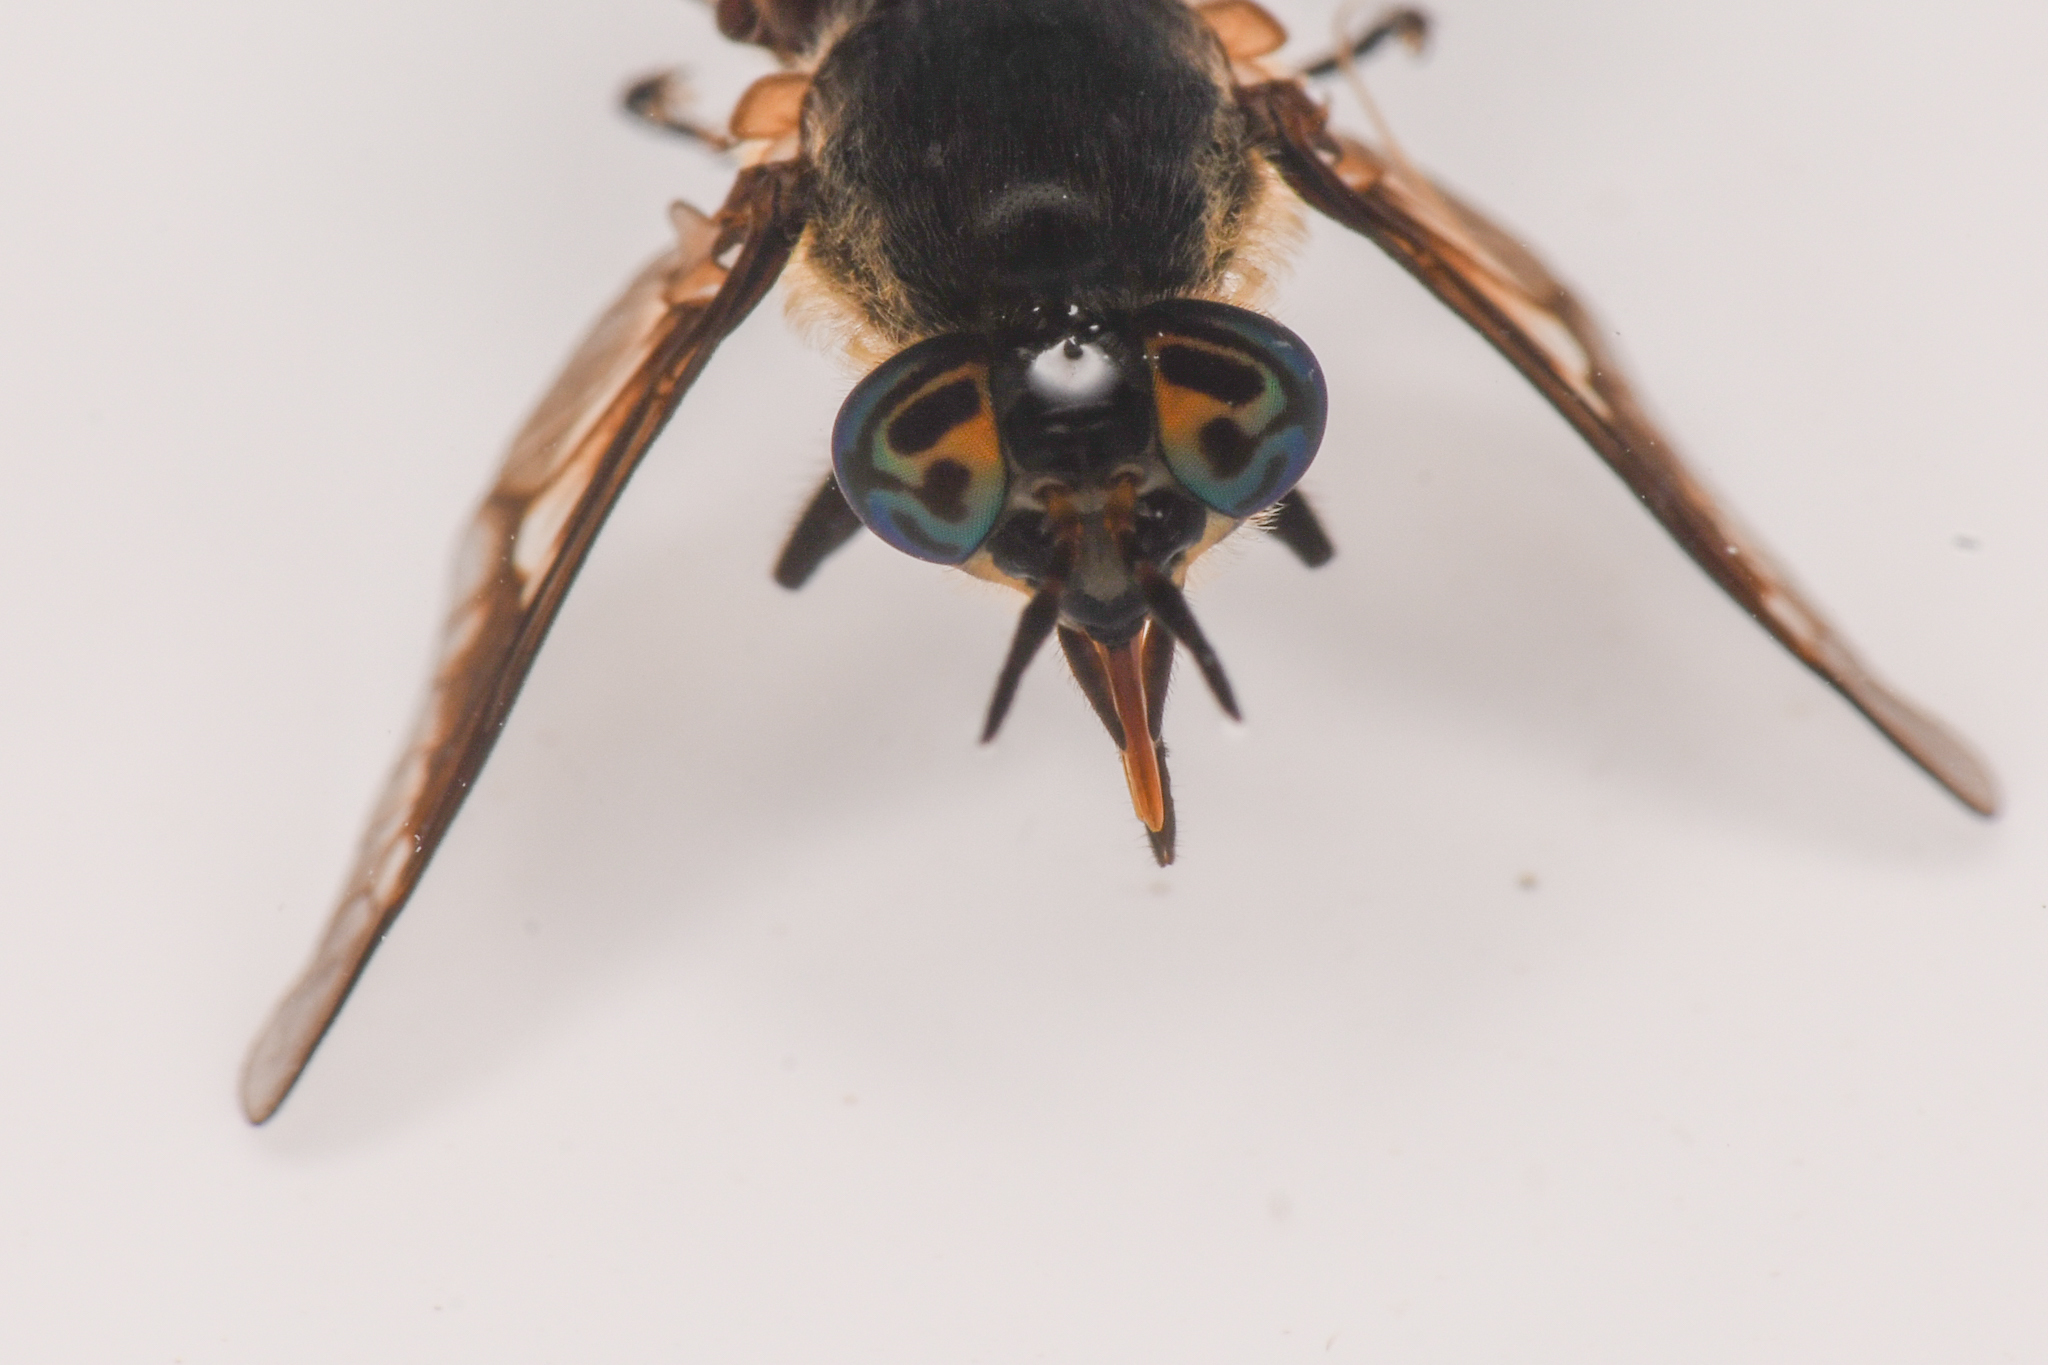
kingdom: Animalia
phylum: Arthropoda
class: Insecta
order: Diptera
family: Tabanidae
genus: Chrysops
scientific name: Chrysops excitans
